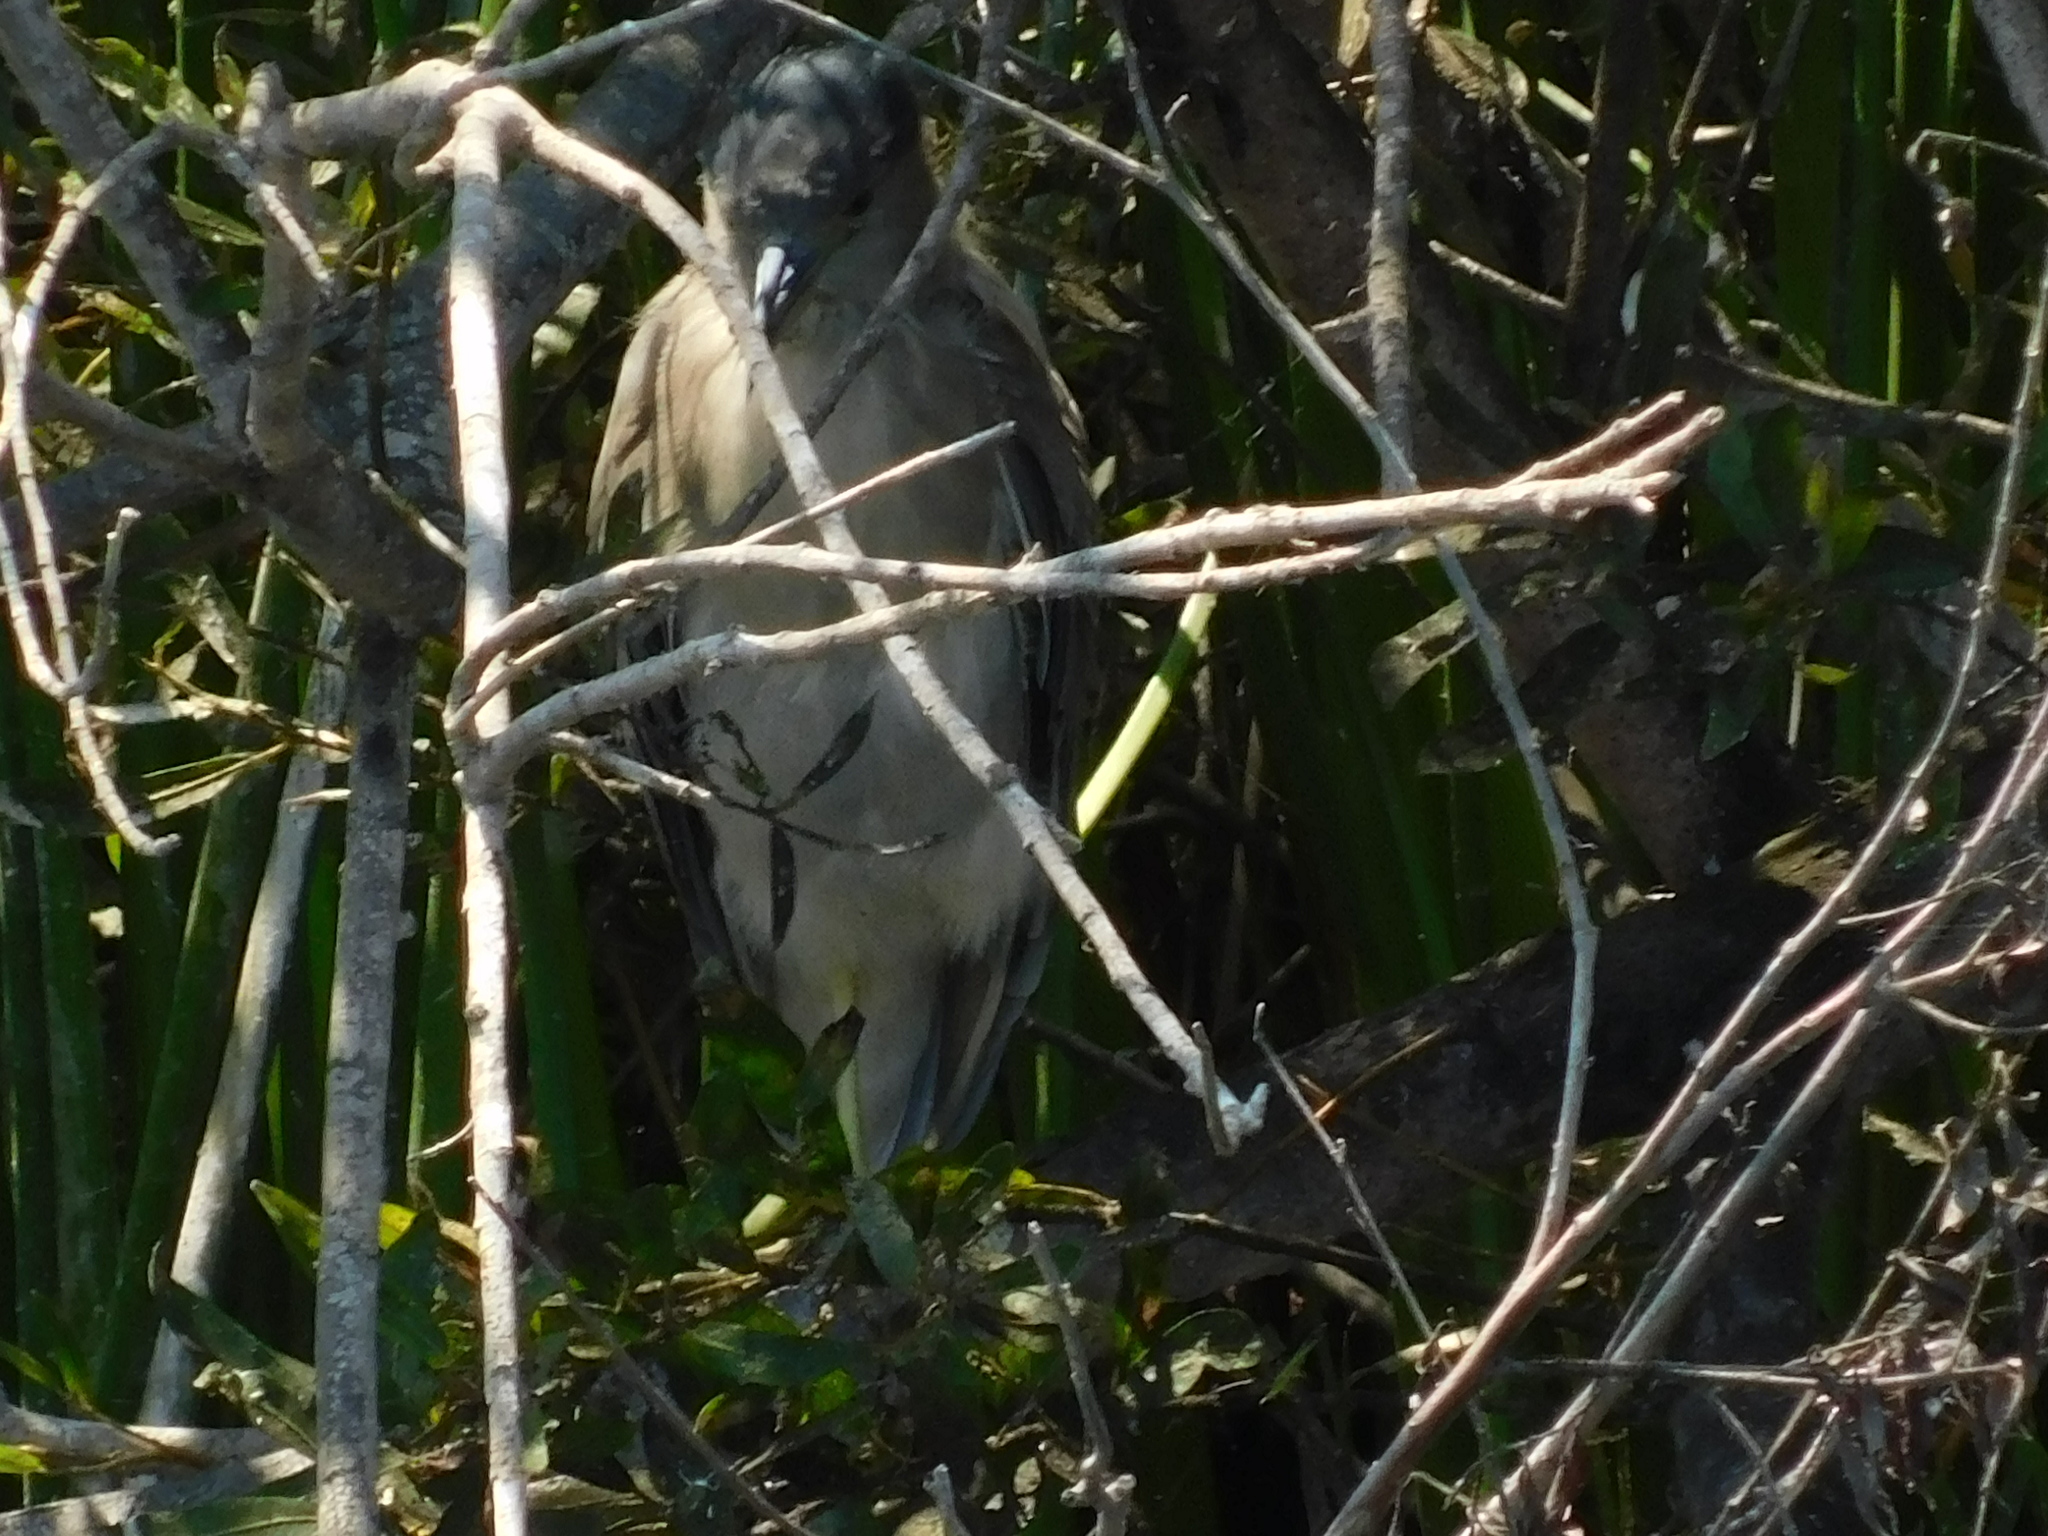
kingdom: Animalia
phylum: Chordata
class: Aves
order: Pelecaniformes
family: Ardeidae
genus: Nycticorax
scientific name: Nycticorax nycticorax
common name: Black-crowned night heron
